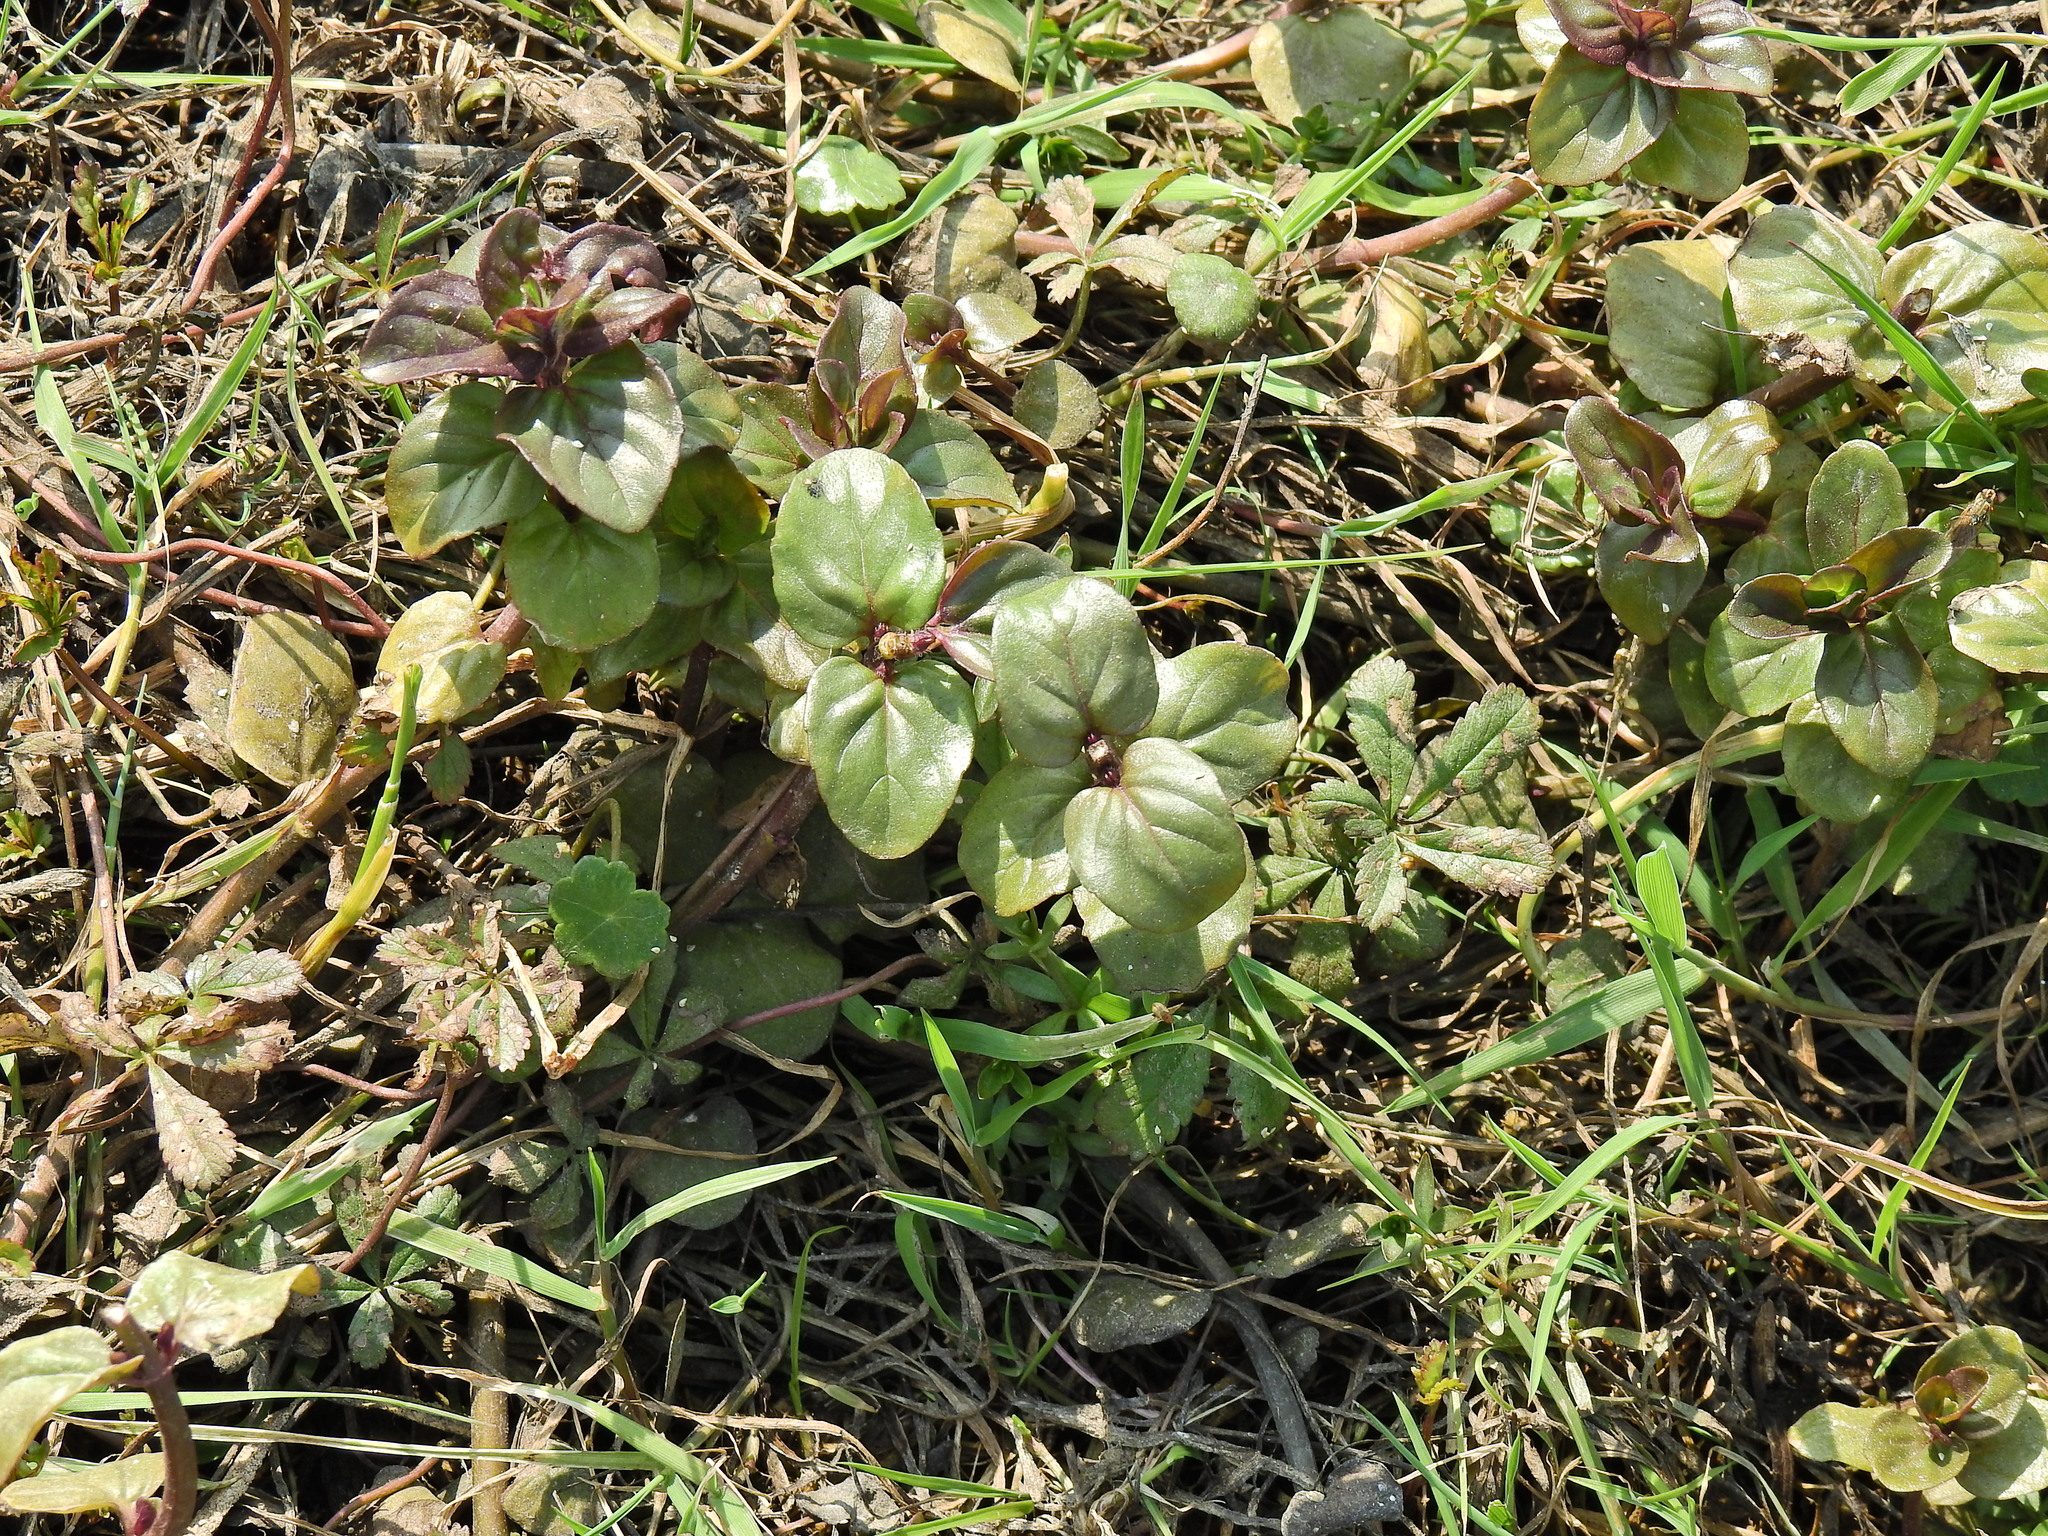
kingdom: Plantae
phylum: Tracheophyta
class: Magnoliopsida
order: Lamiales
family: Lamiaceae
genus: Mentha
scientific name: Mentha aquatica
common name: Water mint
